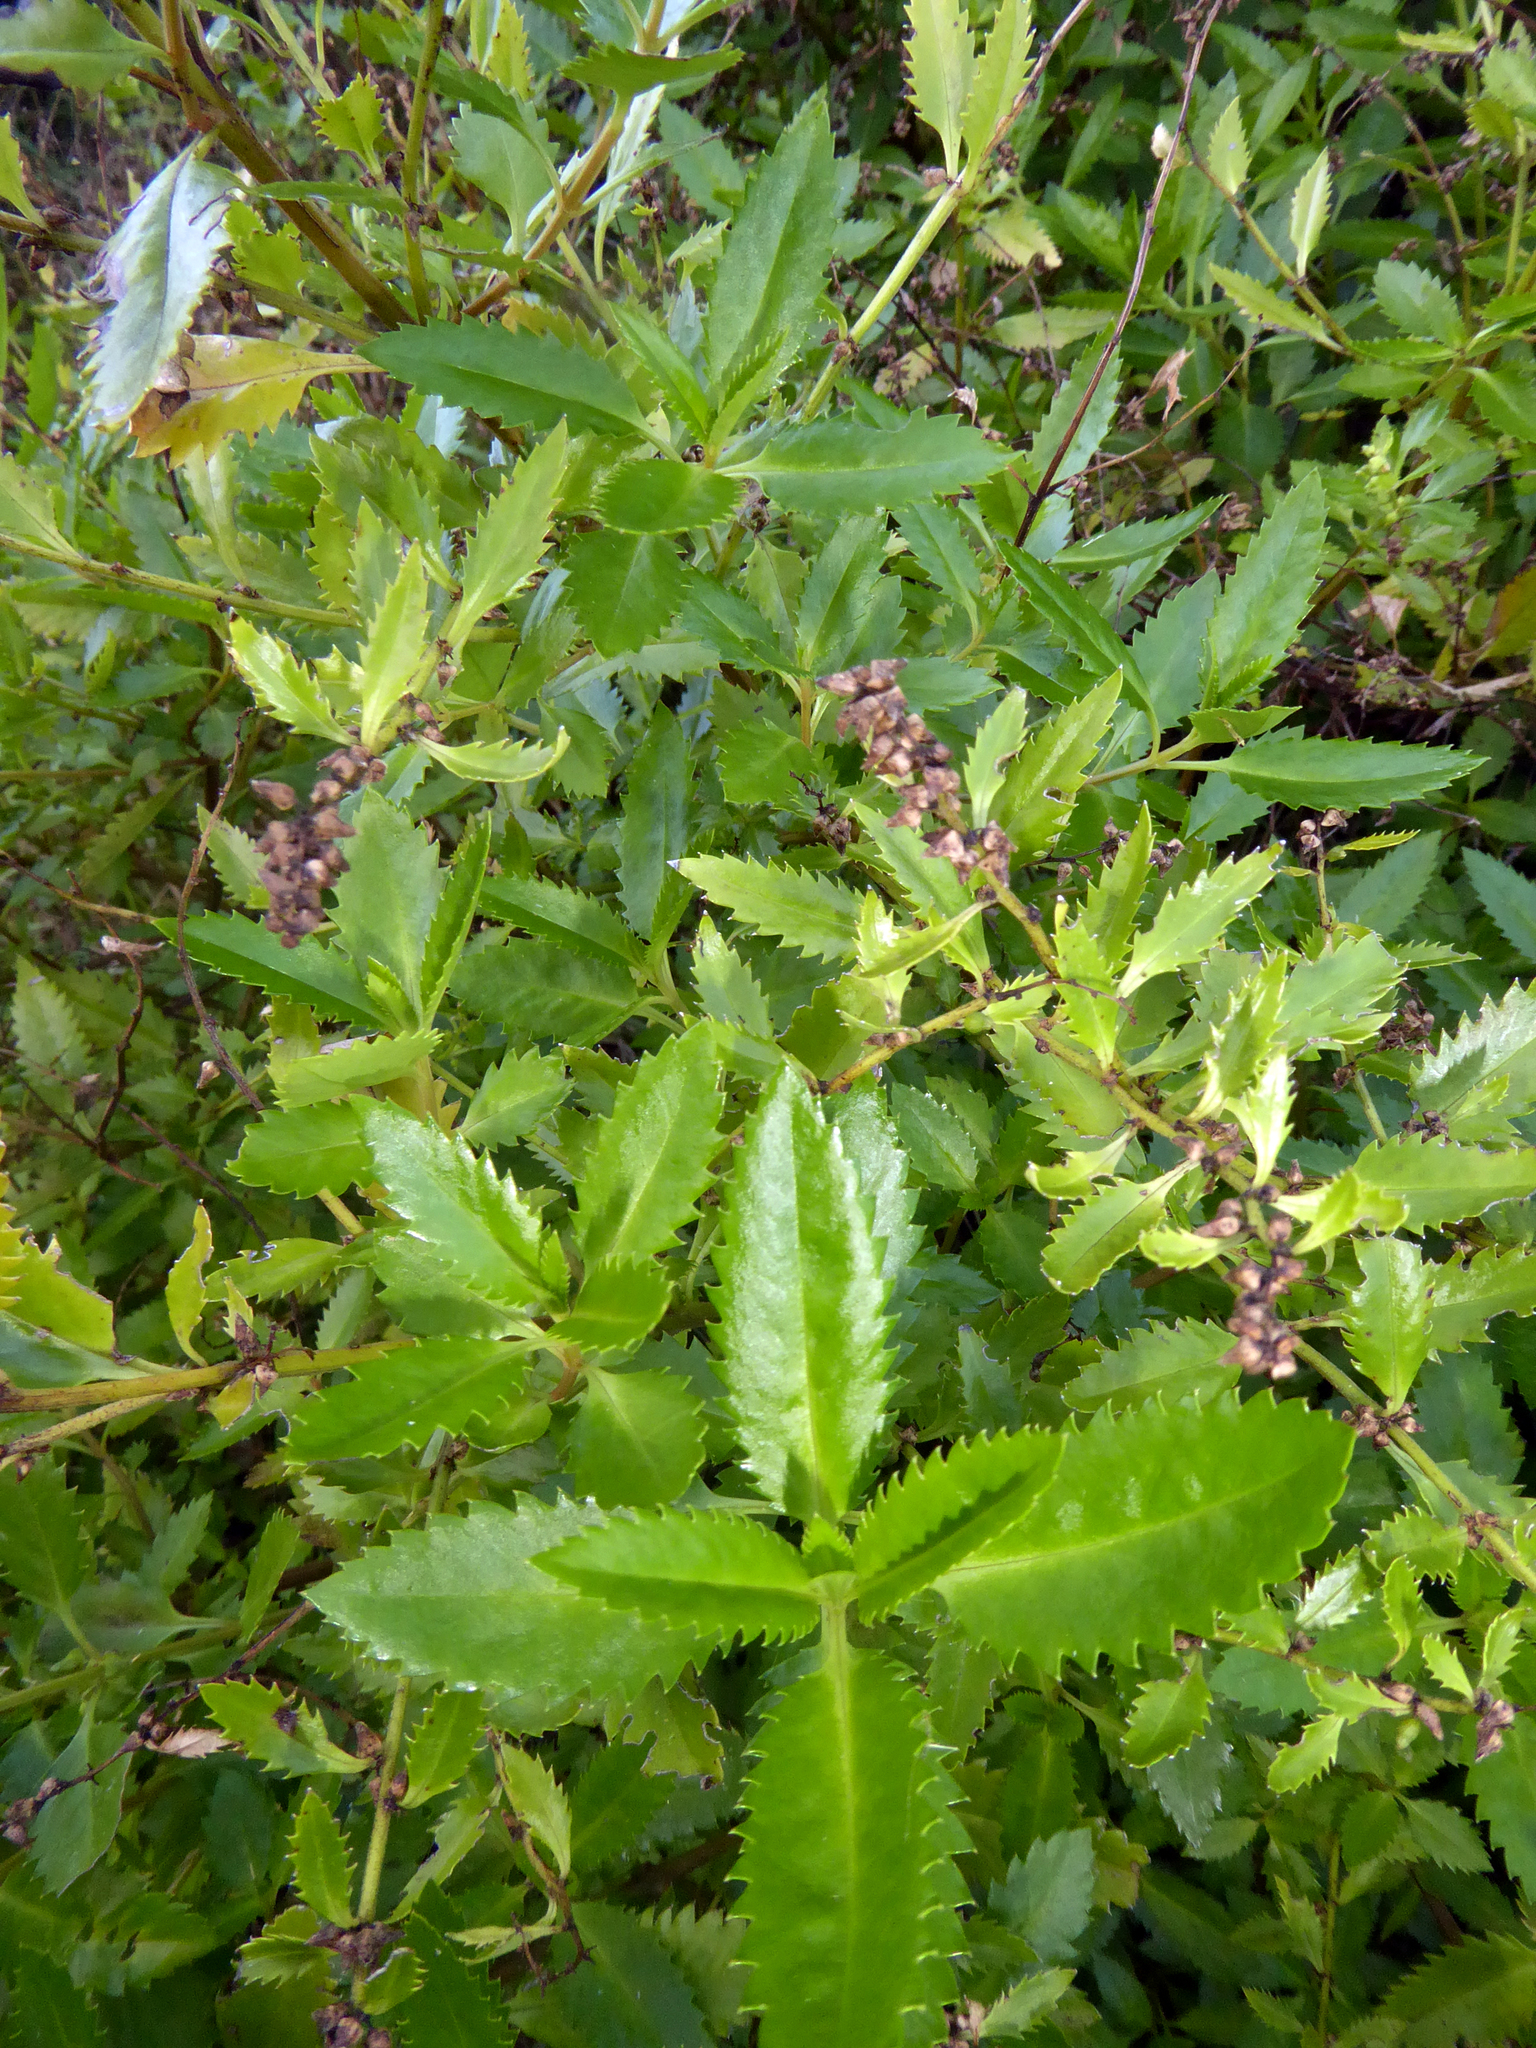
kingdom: Plantae
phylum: Tracheophyta
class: Magnoliopsida
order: Saxifragales
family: Haloragaceae
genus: Haloragis
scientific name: Haloragis erecta
